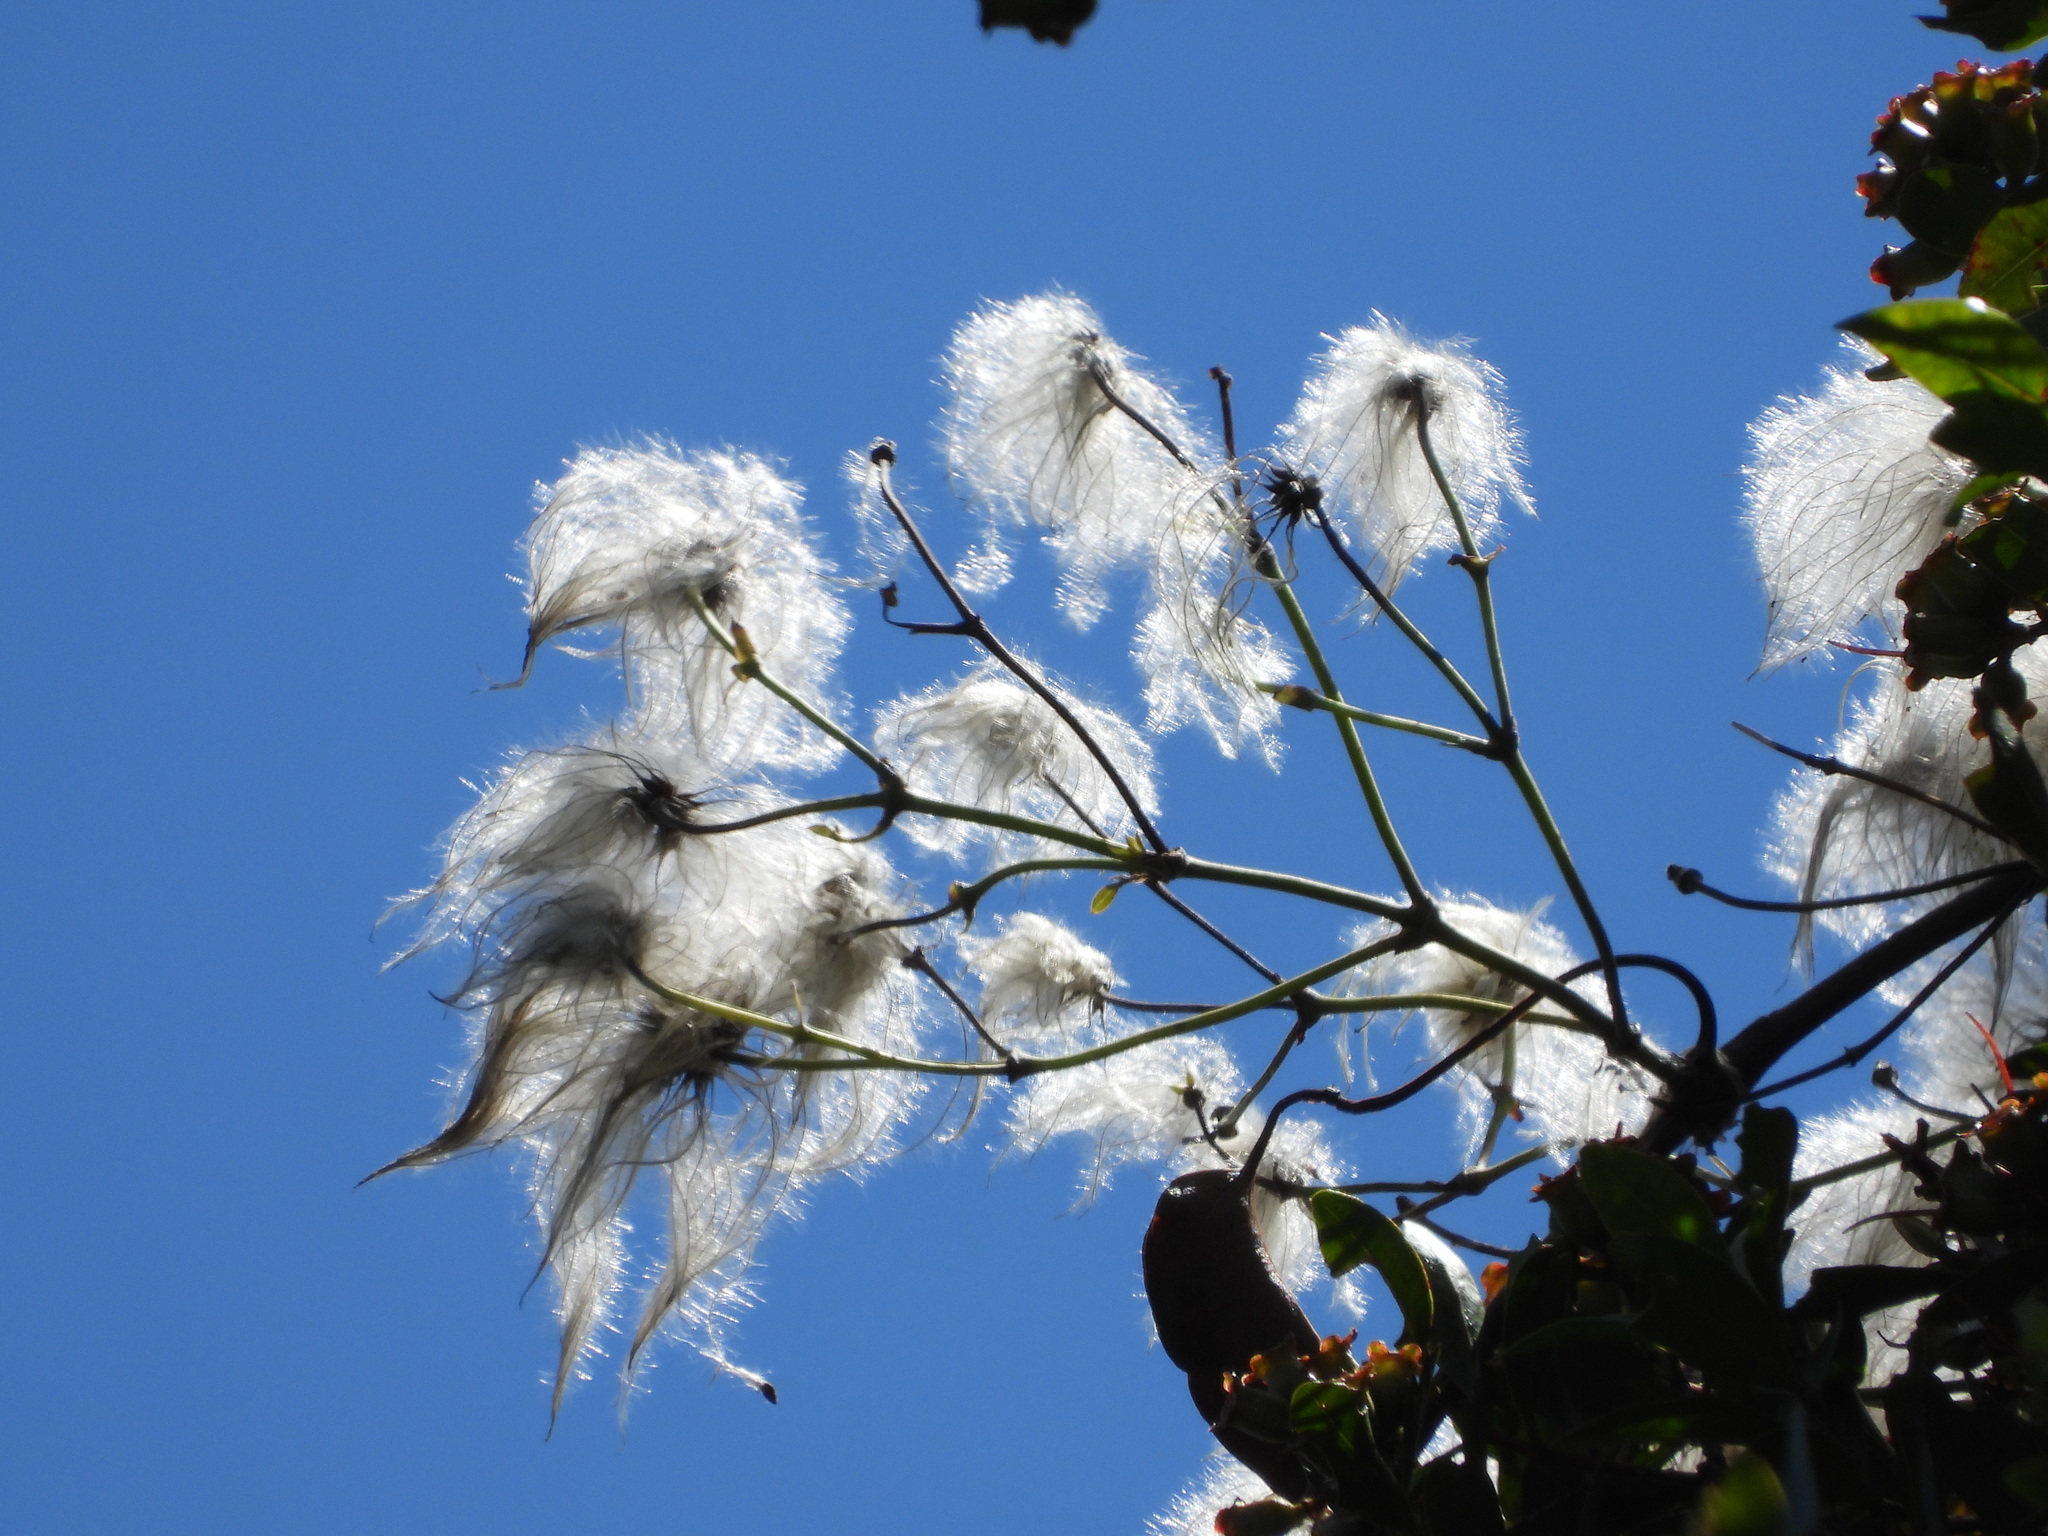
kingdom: Plantae
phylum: Tracheophyta
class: Magnoliopsida
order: Ranunculales
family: Ranunculaceae
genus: Clematis
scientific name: Clematis paniculata
